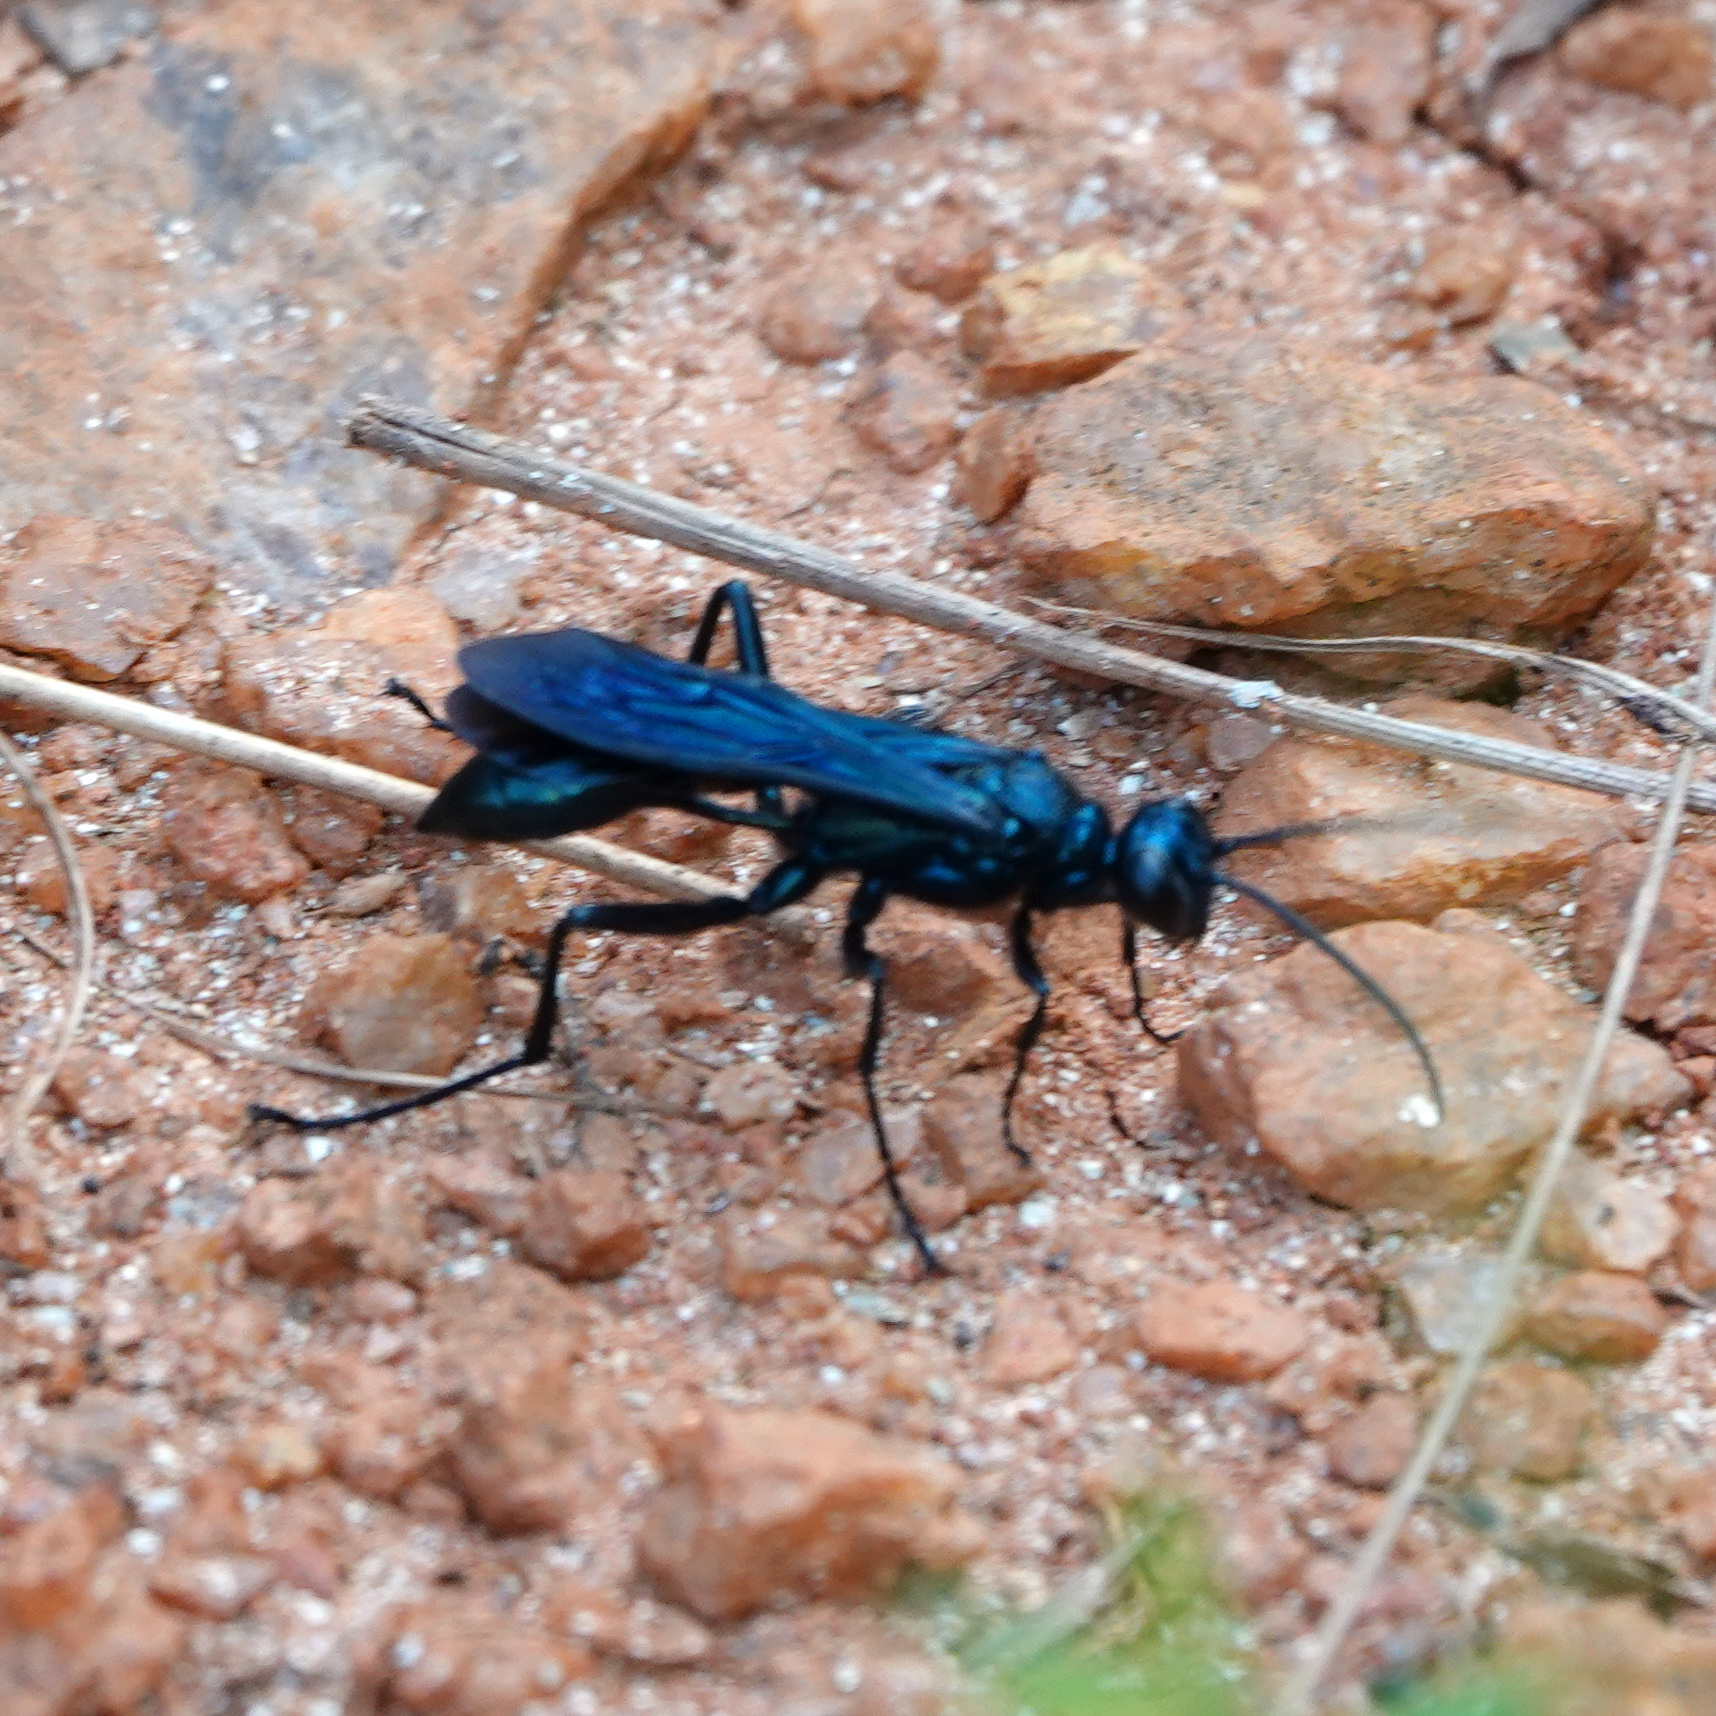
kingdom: Animalia
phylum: Arthropoda
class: Insecta
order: Hymenoptera
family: Sphecidae
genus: Chalybion
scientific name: Chalybion californicum
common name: Mud dauber
